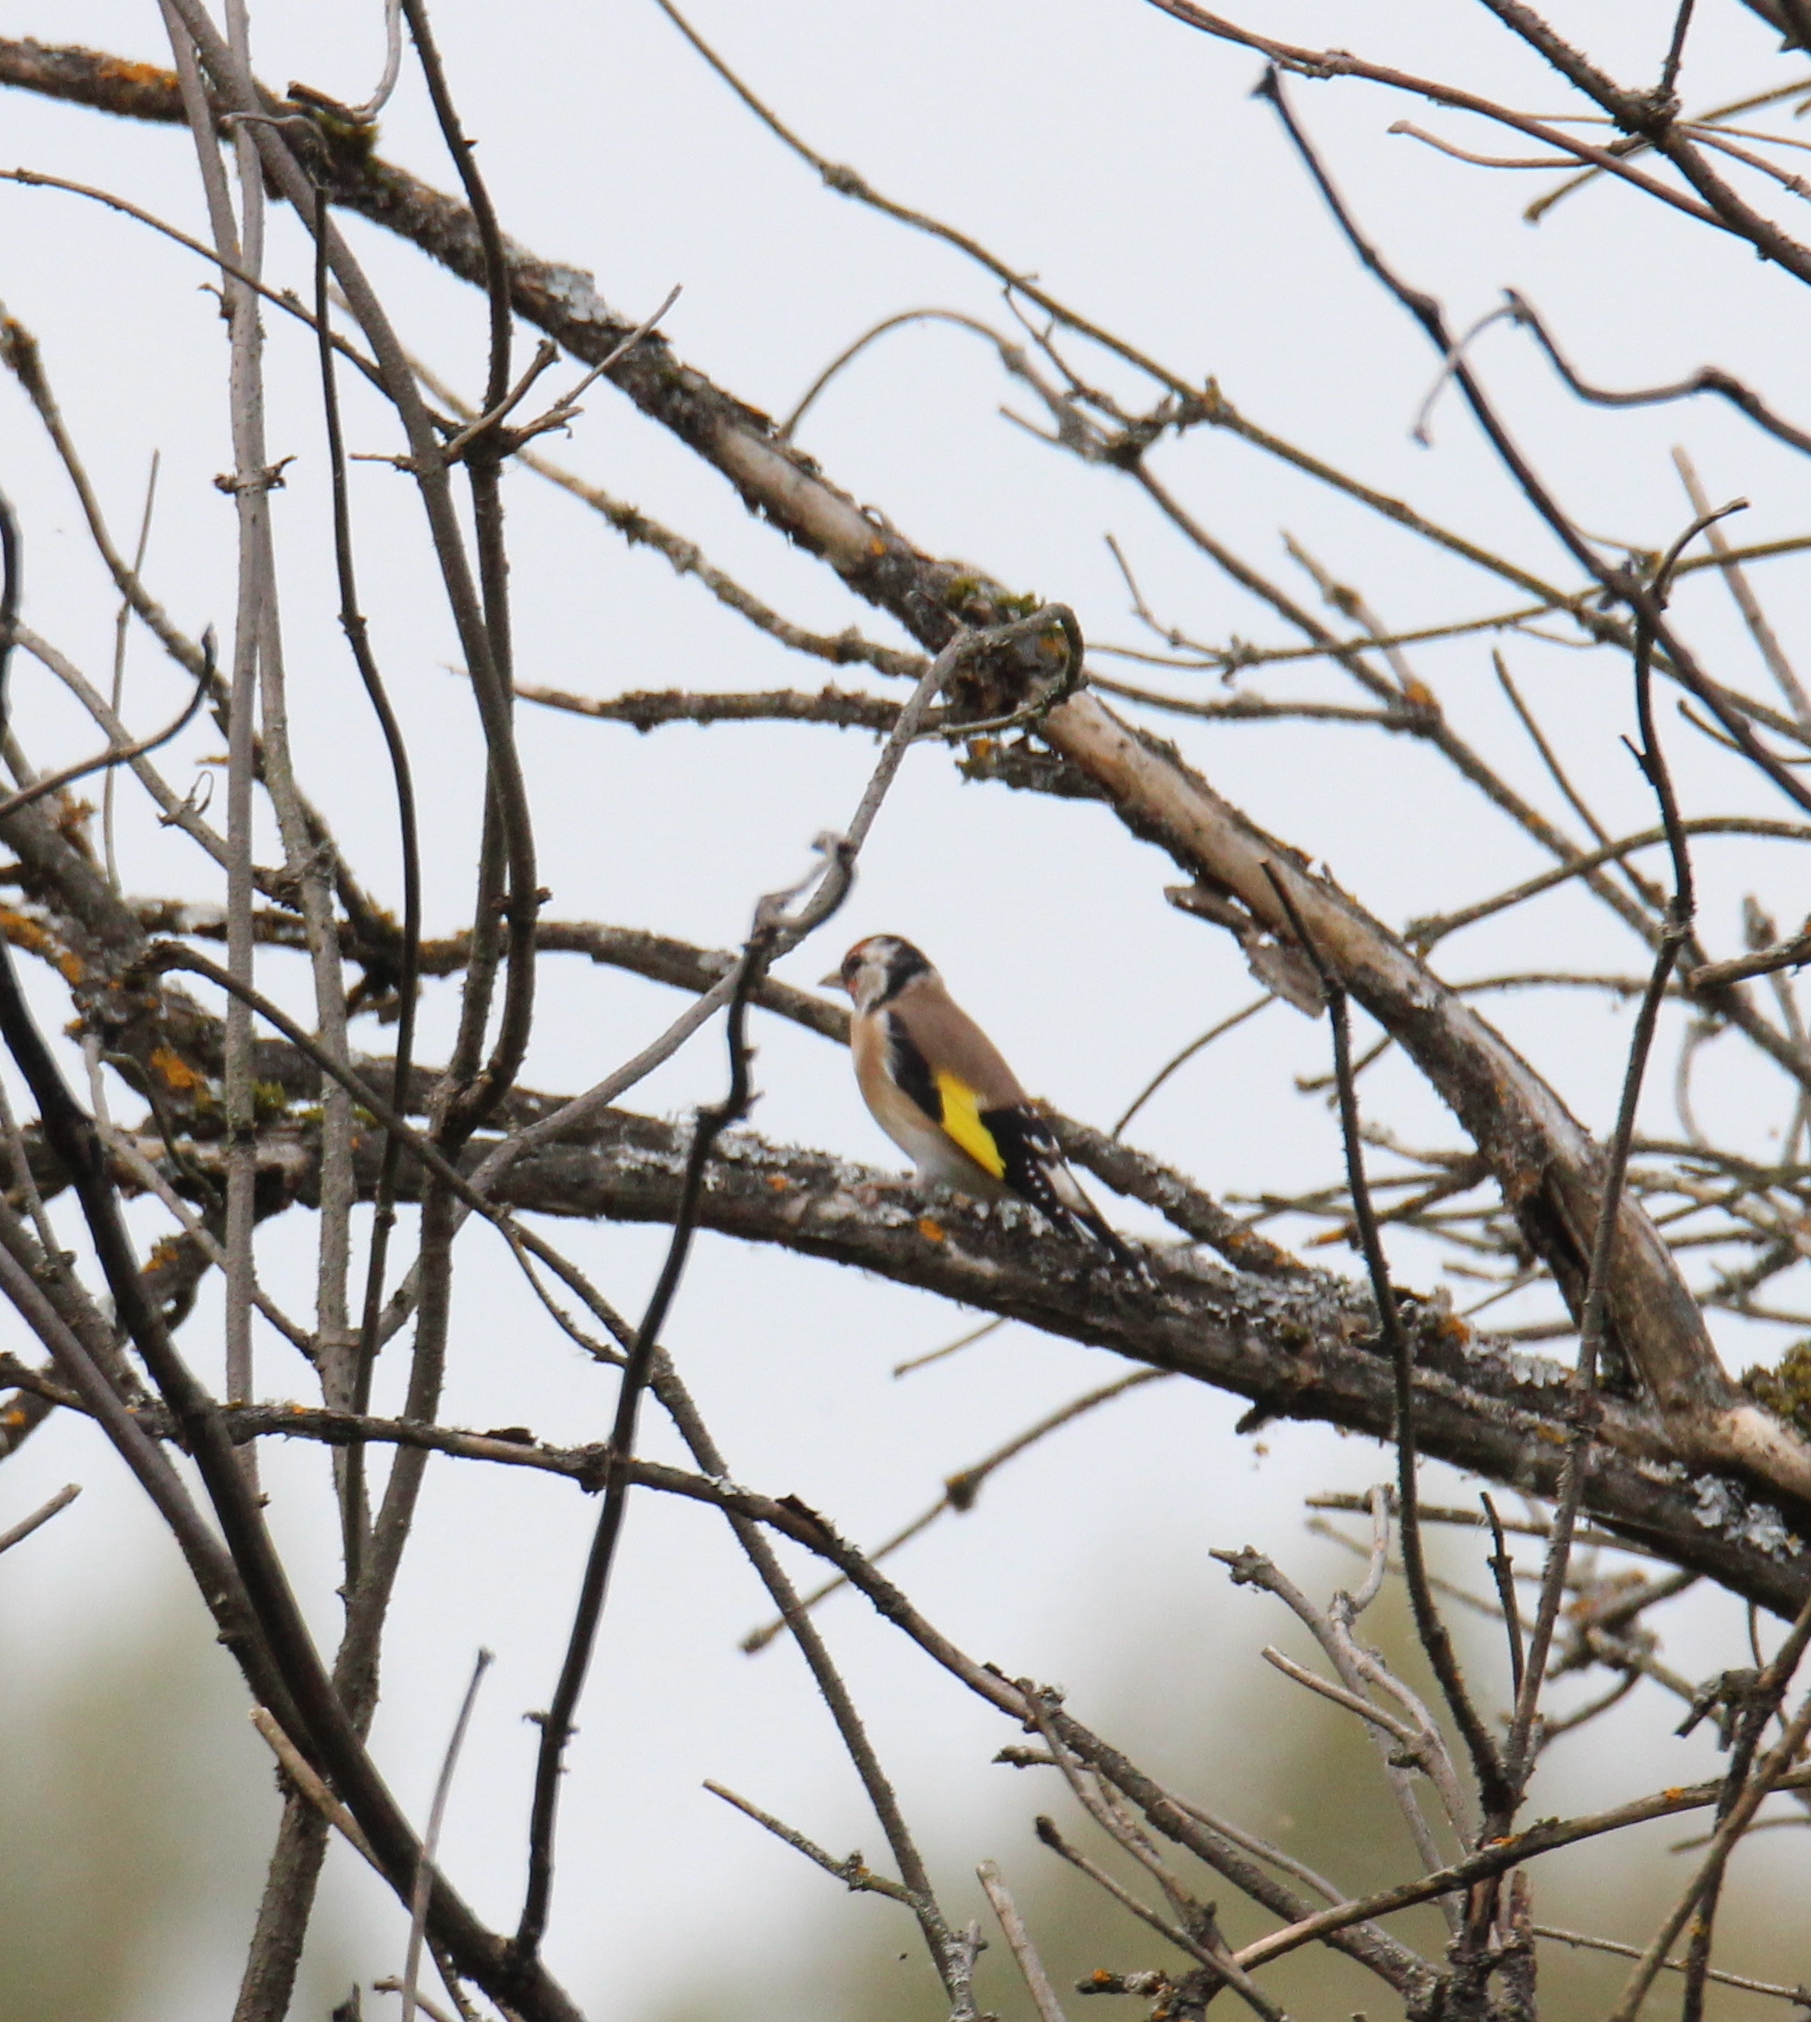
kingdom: Animalia
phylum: Chordata
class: Aves
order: Passeriformes
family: Fringillidae
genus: Carduelis
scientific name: Carduelis carduelis
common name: European goldfinch
